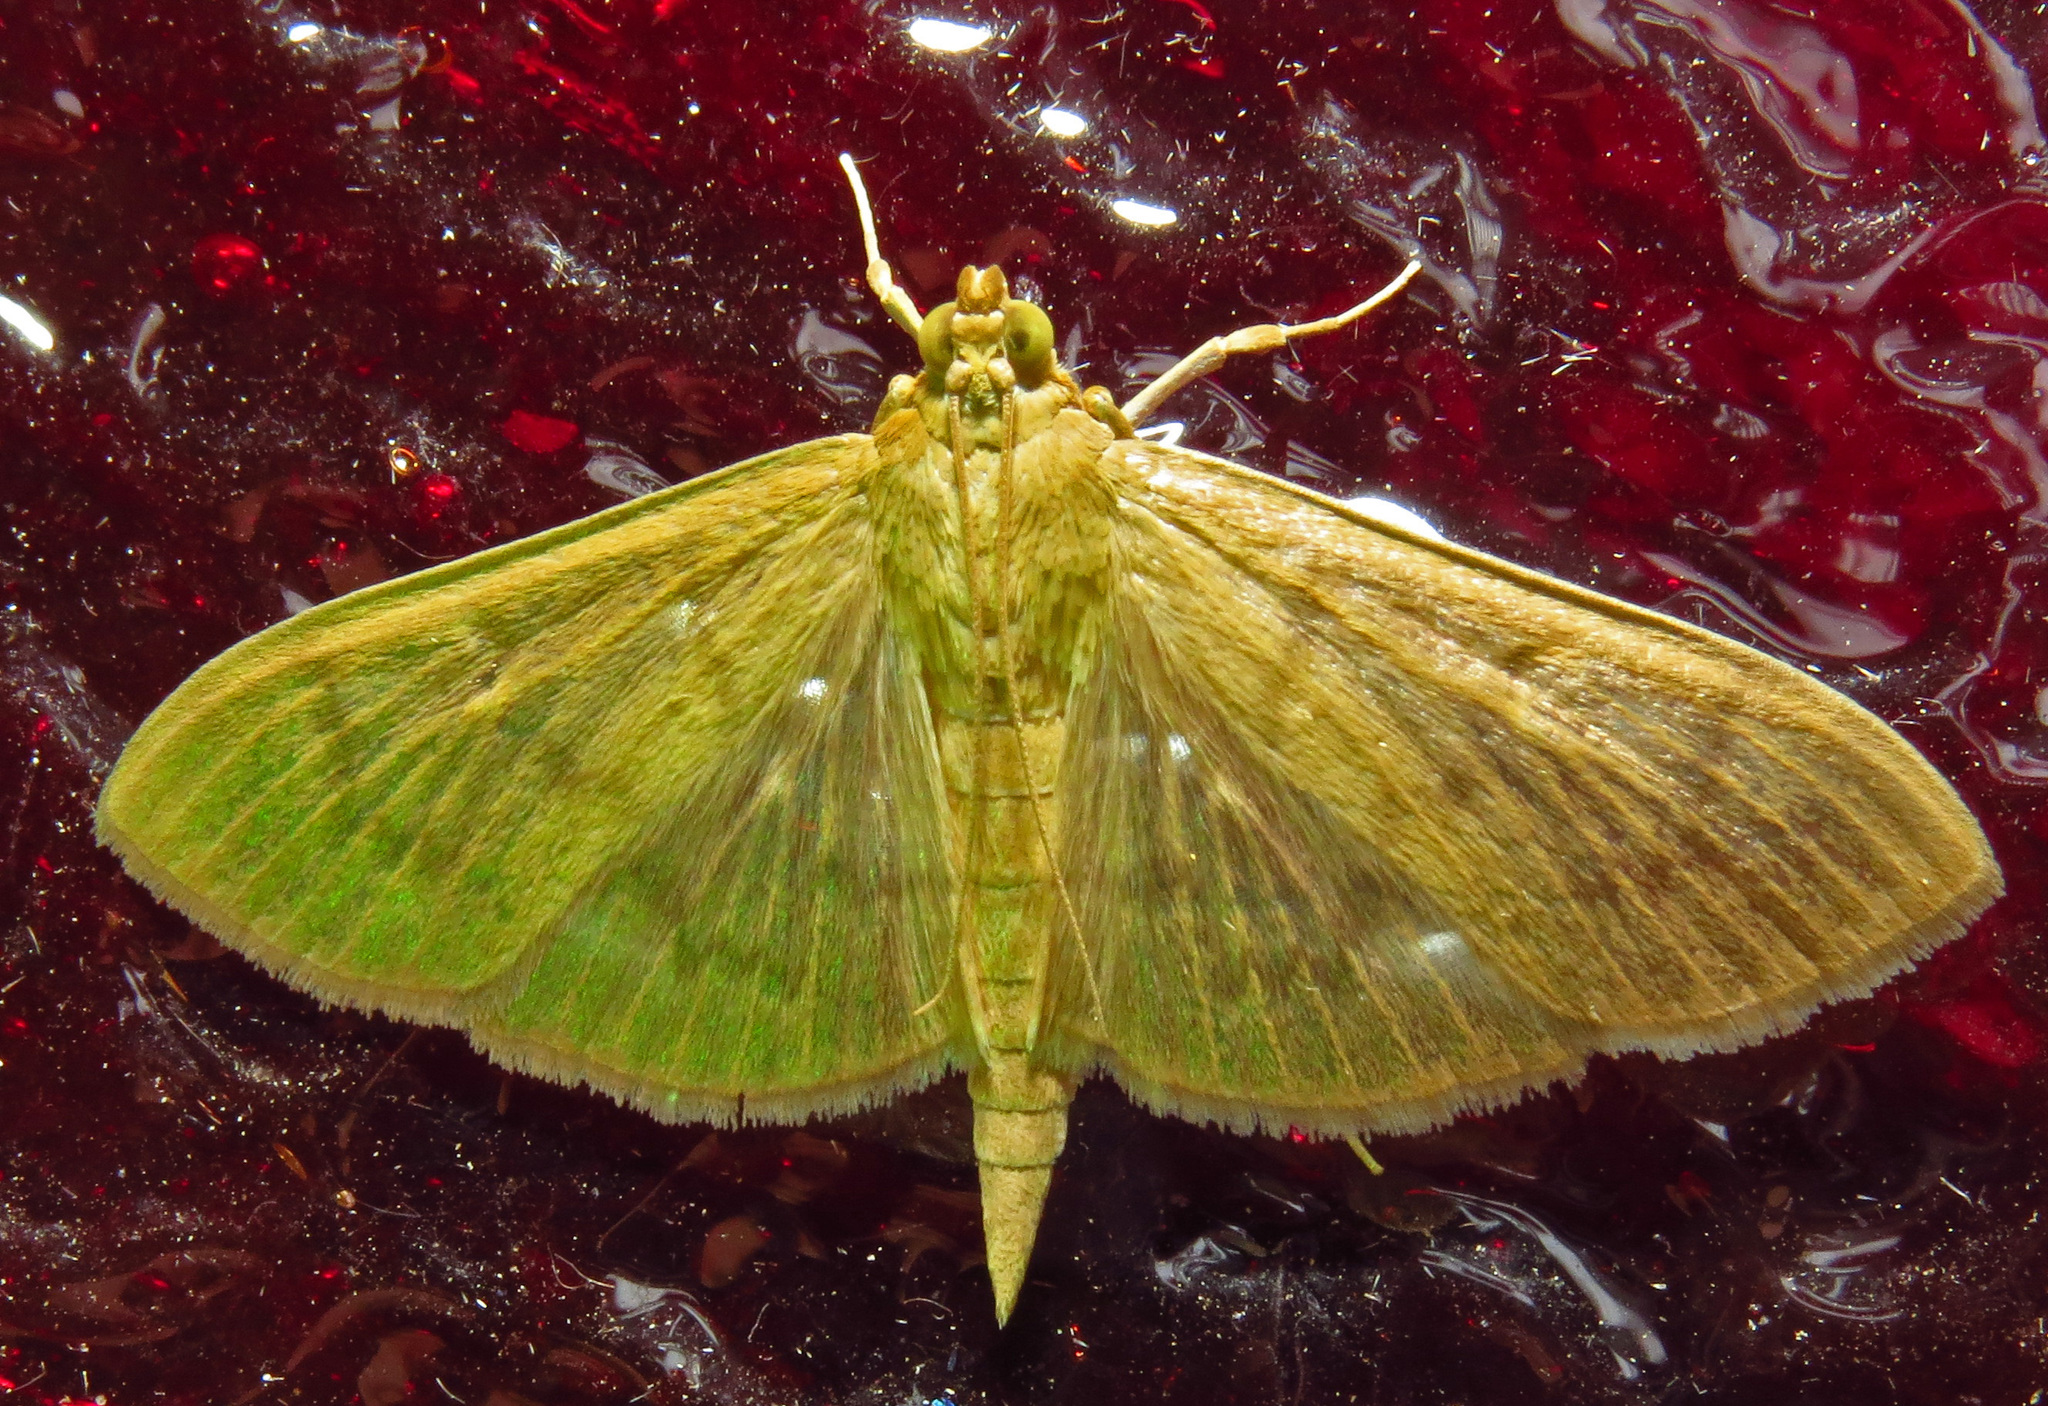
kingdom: Animalia
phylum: Arthropoda
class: Insecta
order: Lepidoptera
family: Crambidae
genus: Pleuroptya
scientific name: Pleuroptya silicalis
